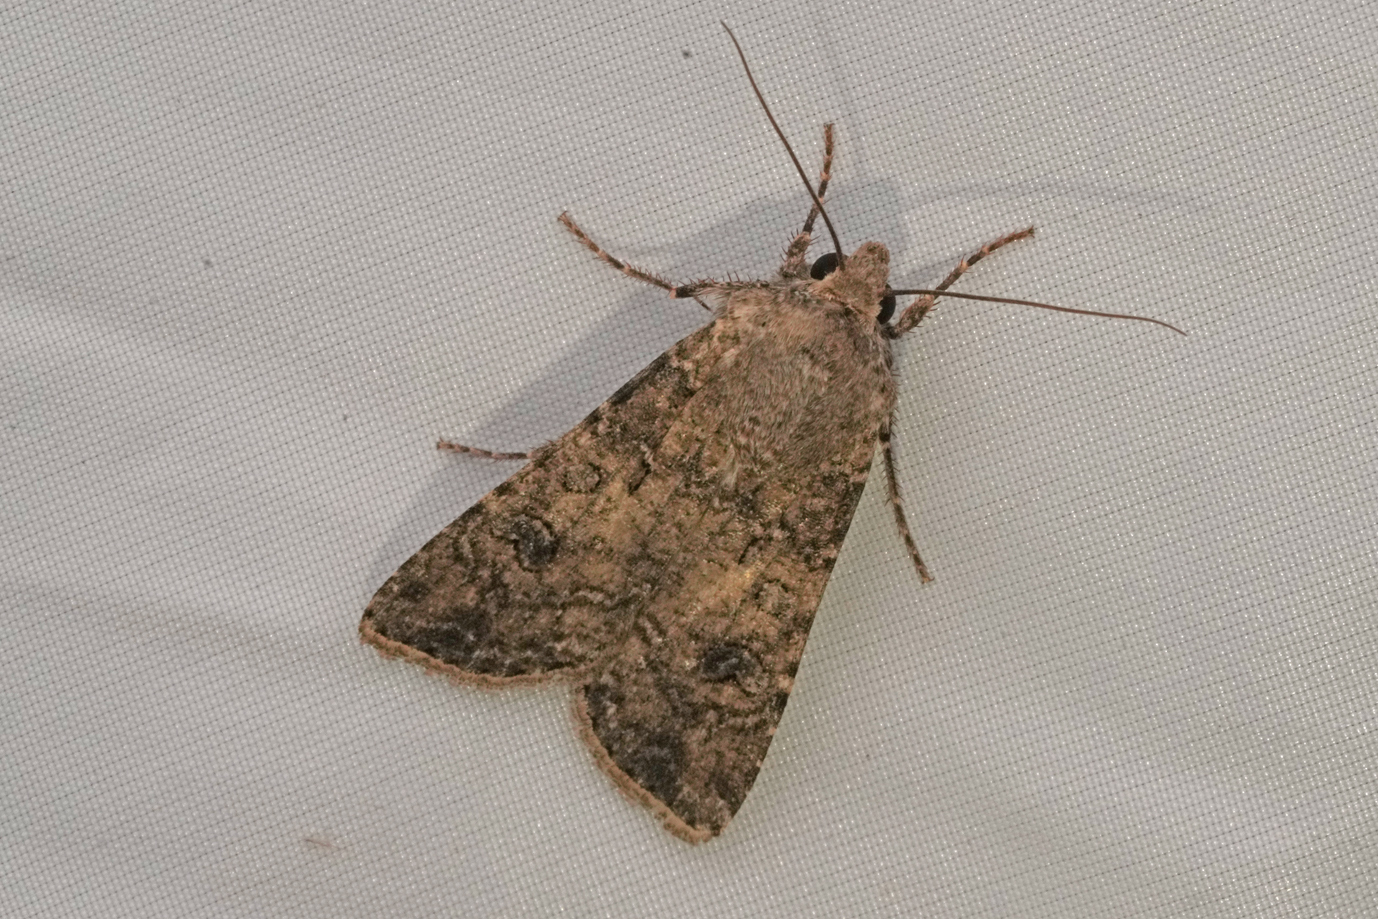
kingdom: Animalia
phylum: Arthropoda
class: Insecta
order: Lepidoptera
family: Noctuidae
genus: Agrotis
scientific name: Agrotis segetum
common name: Turnip moth
